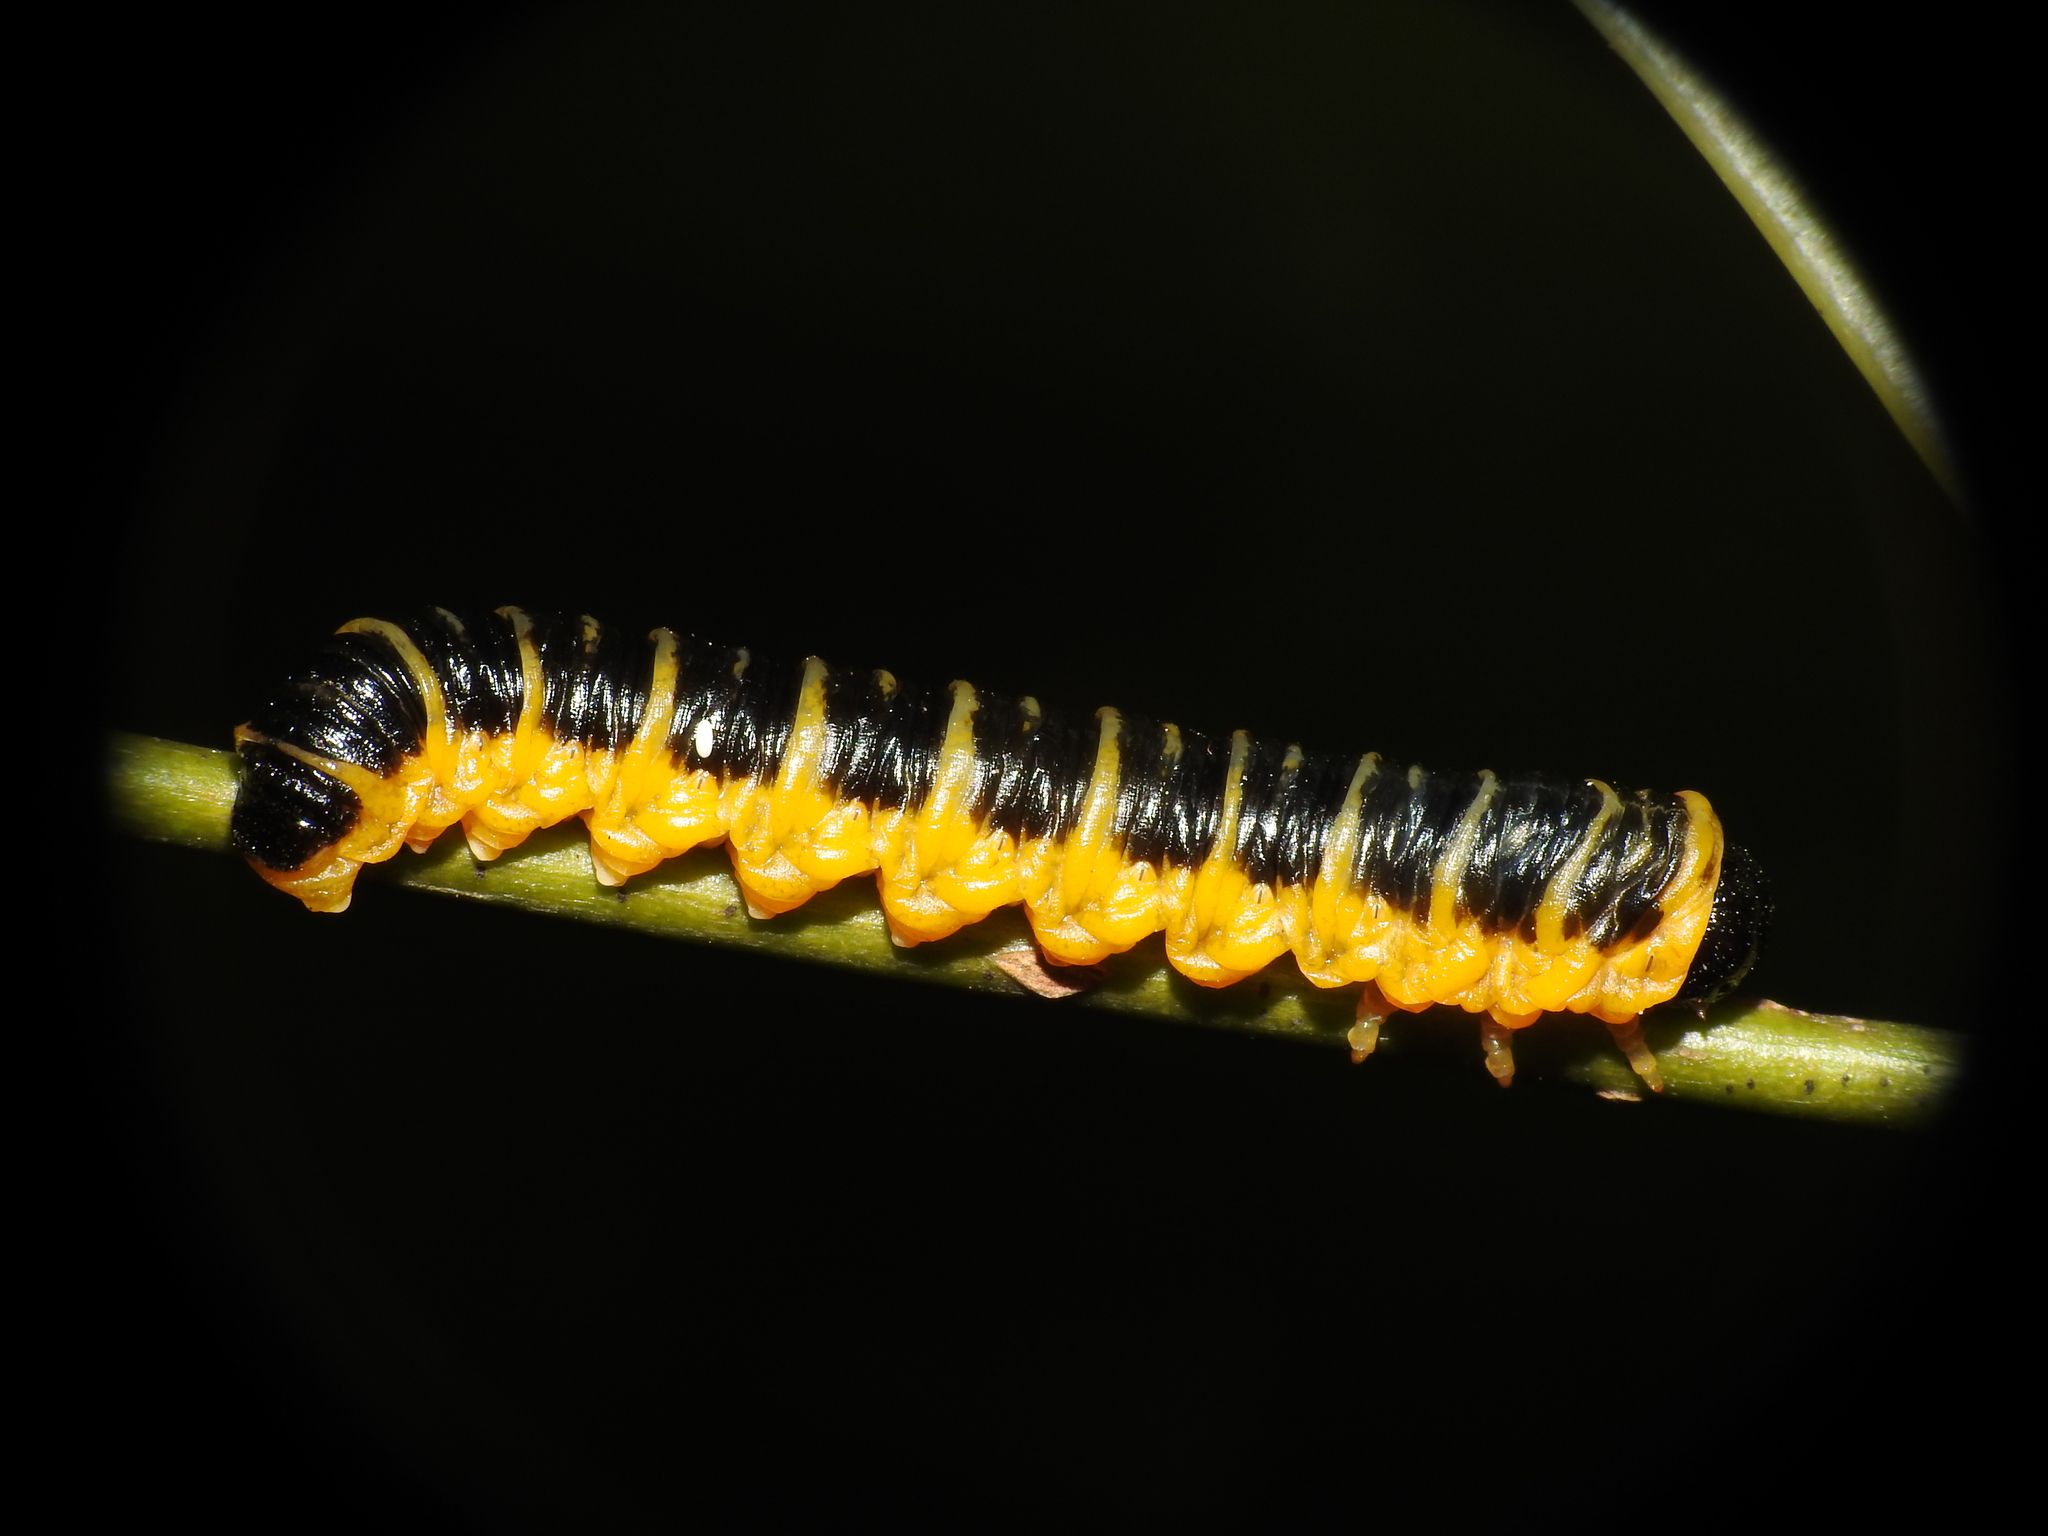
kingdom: Animalia
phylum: Arthropoda
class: Insecta
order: Hymenoptera
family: Tenthredinidae
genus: Macremphytus
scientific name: Macremphytus
